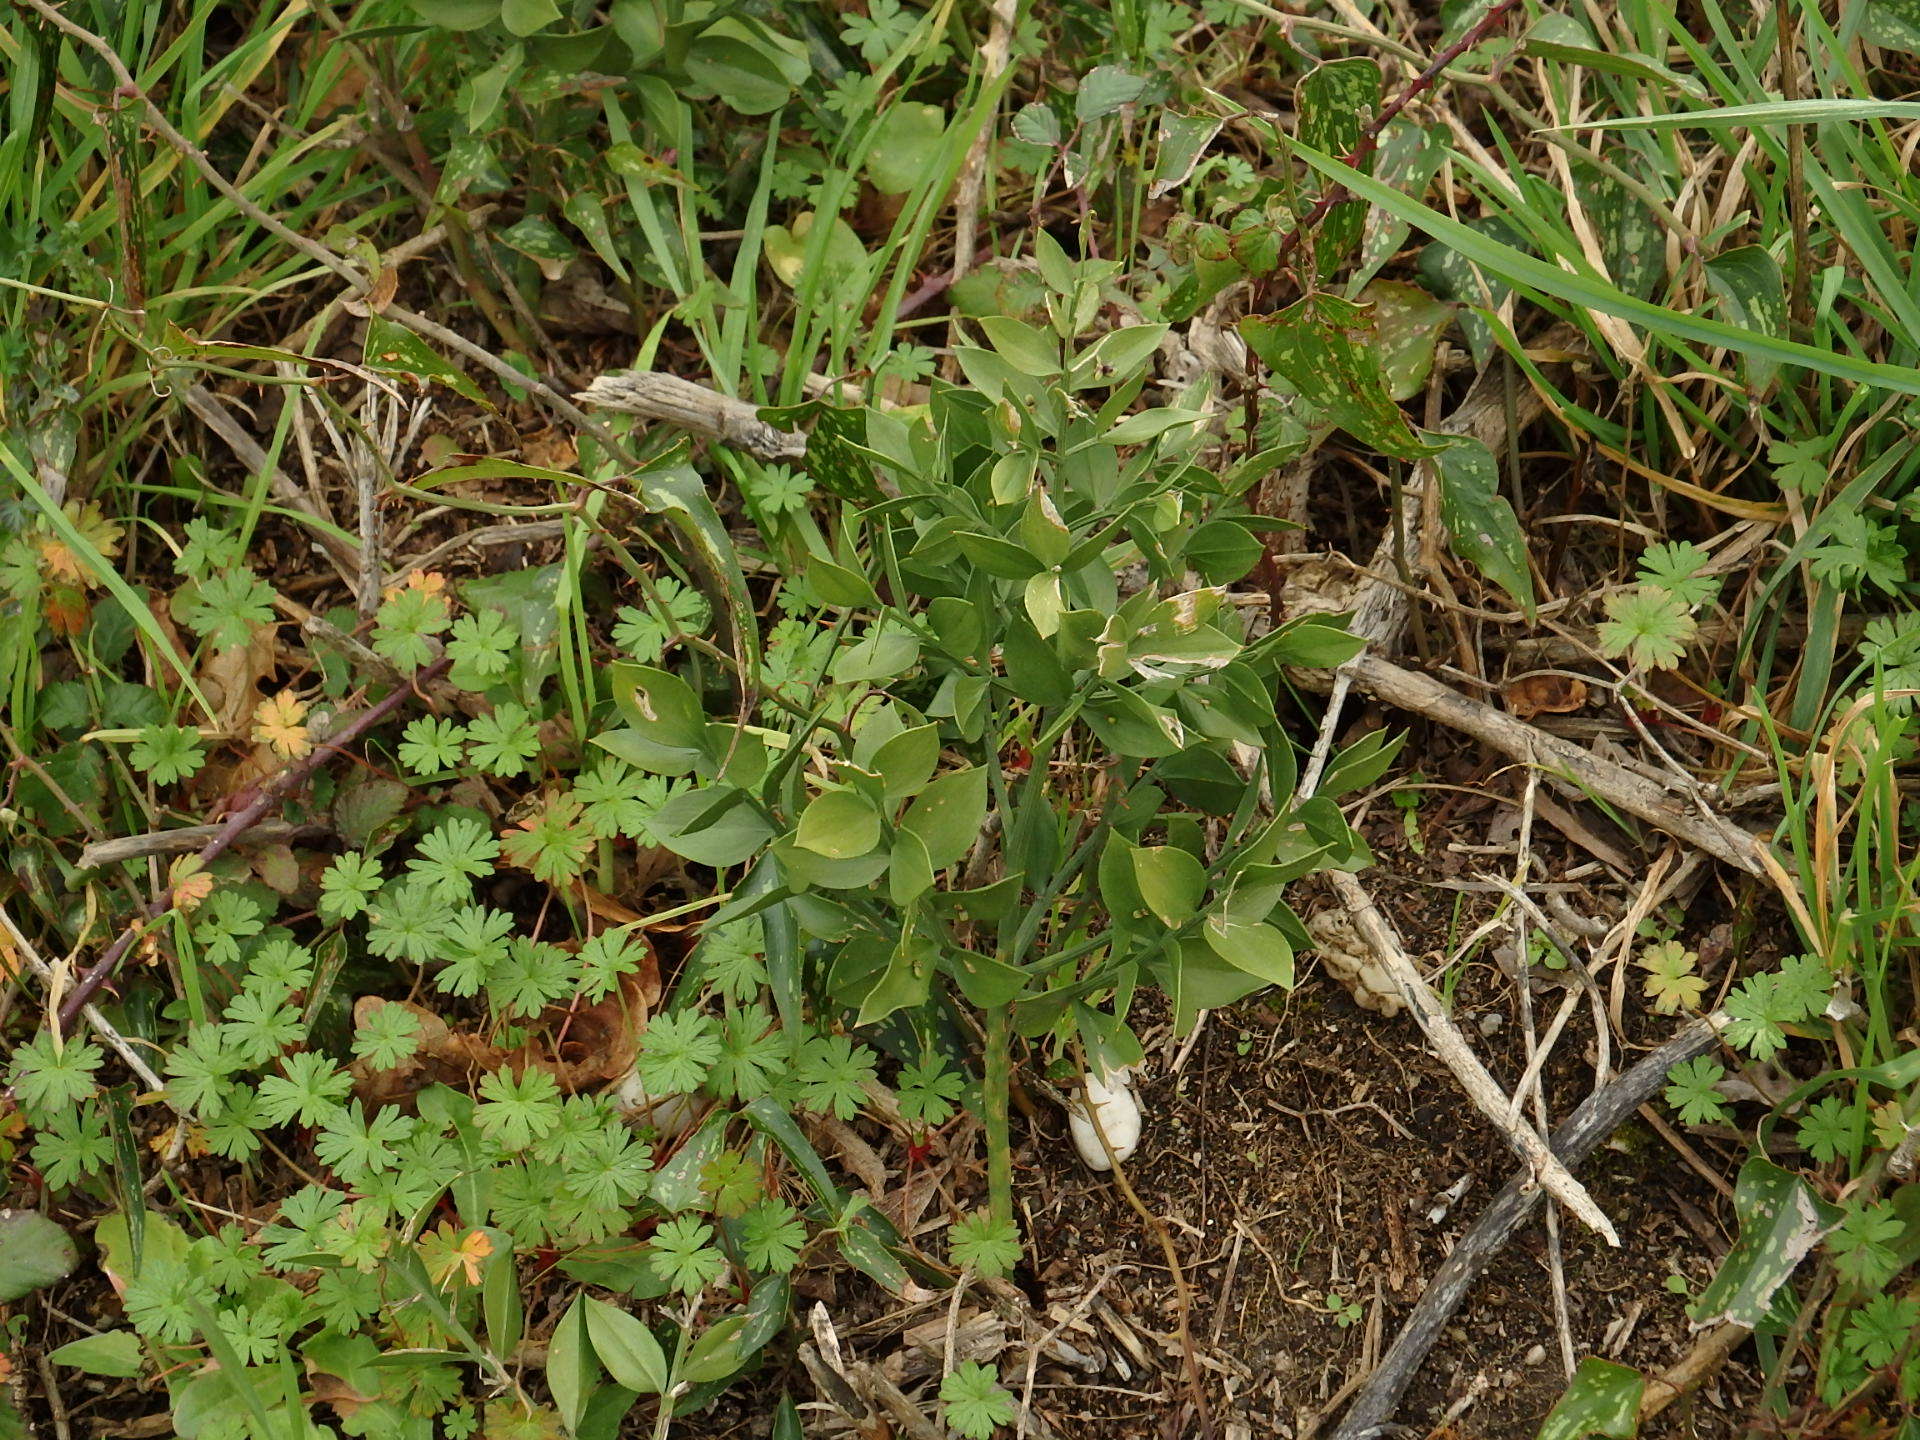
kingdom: Plantae
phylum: Tracheophyta
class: Liliopsida
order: Asparagales
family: Asparagaceae
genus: Ruscus
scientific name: Ruscus aculeatus
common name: Butcher's-broom
